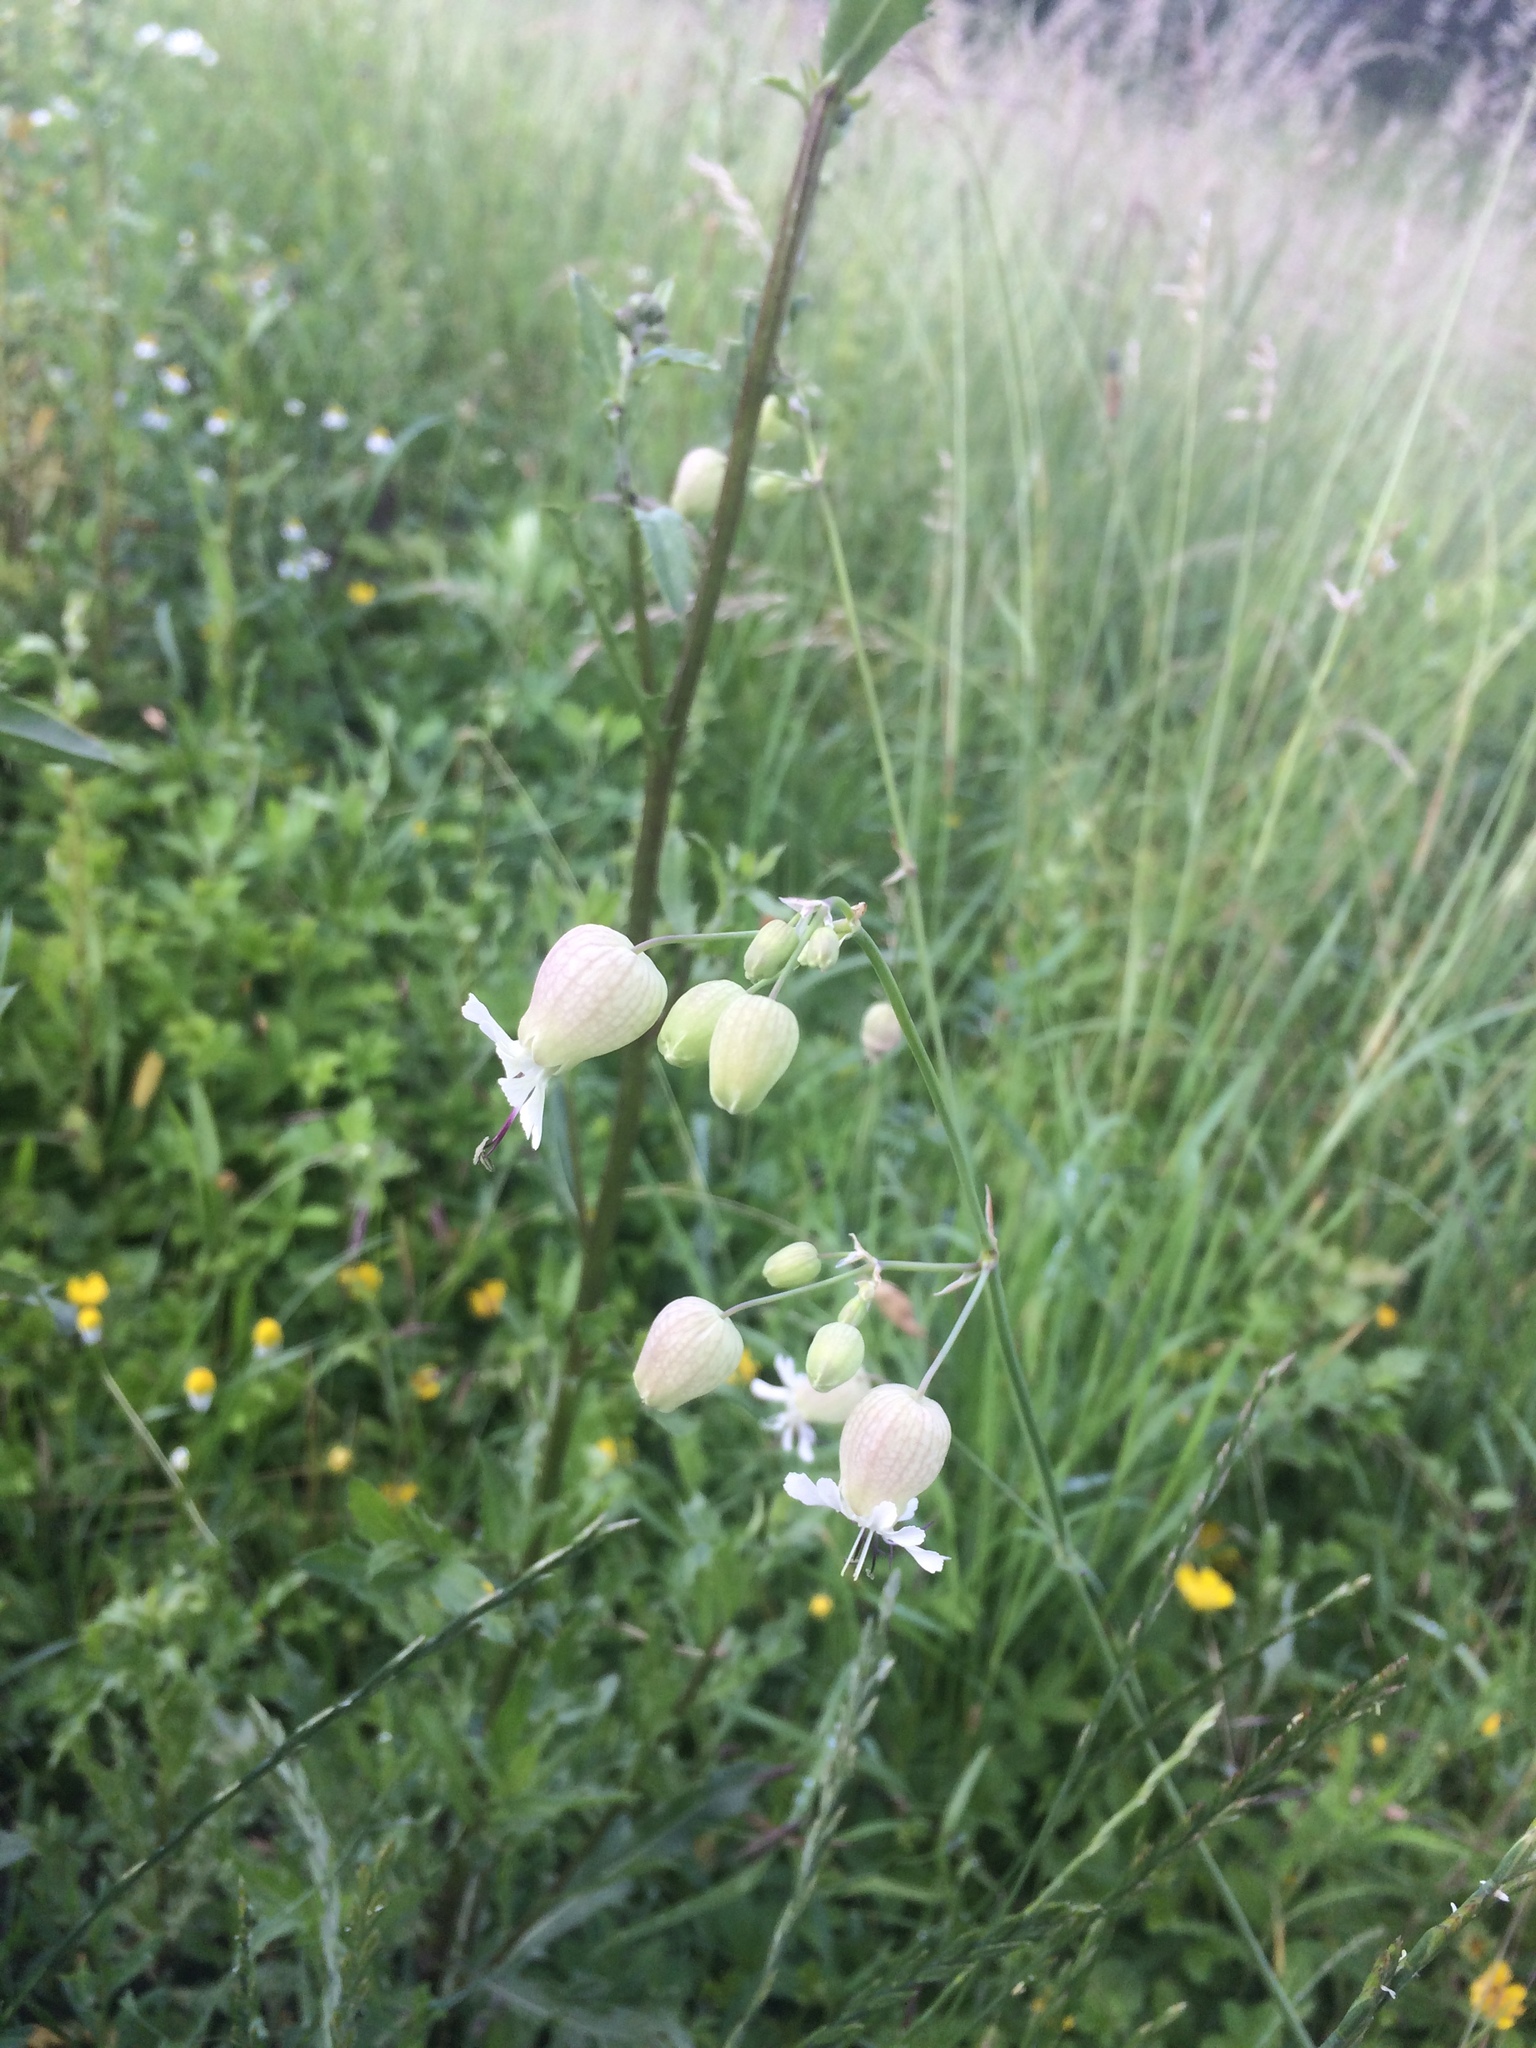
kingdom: Plantae
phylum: Tracheophyta
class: Magnoliopsida
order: Caryophyllales
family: Caryophyllaceae
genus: Silene
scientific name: Silene vulgaris
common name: Bladder campion
